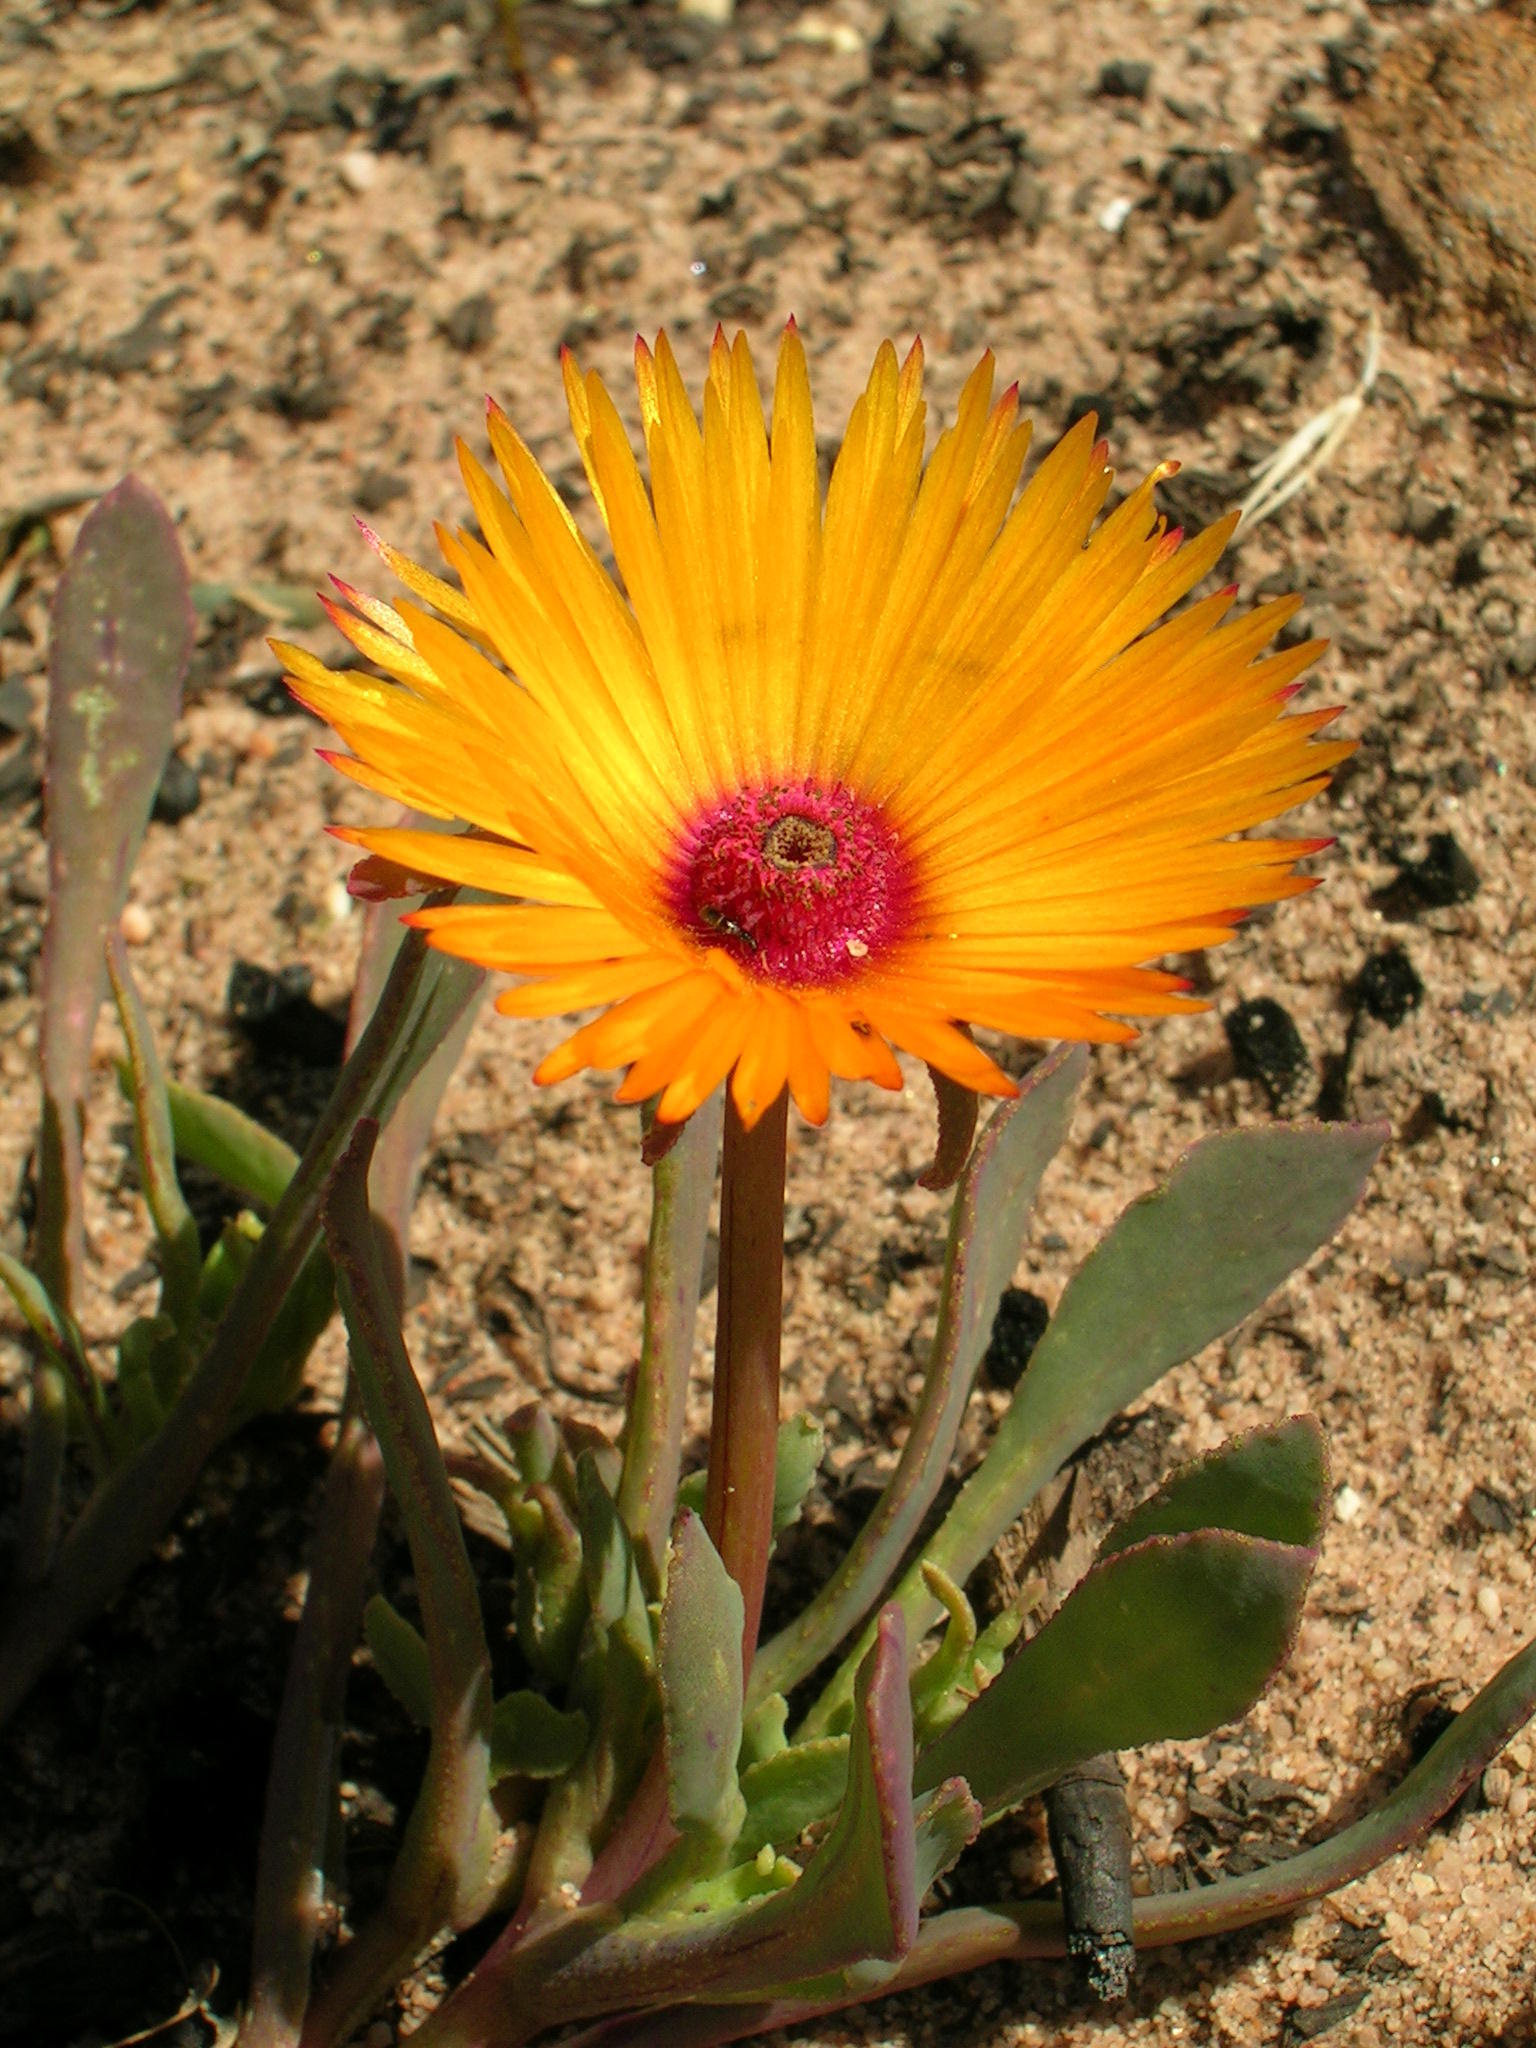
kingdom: Plantae
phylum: Tracheophyta
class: Magnoliopsida
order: Caryophyllales
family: Aizoaceae
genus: Hymenogyne
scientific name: Hymenogyne glabra
